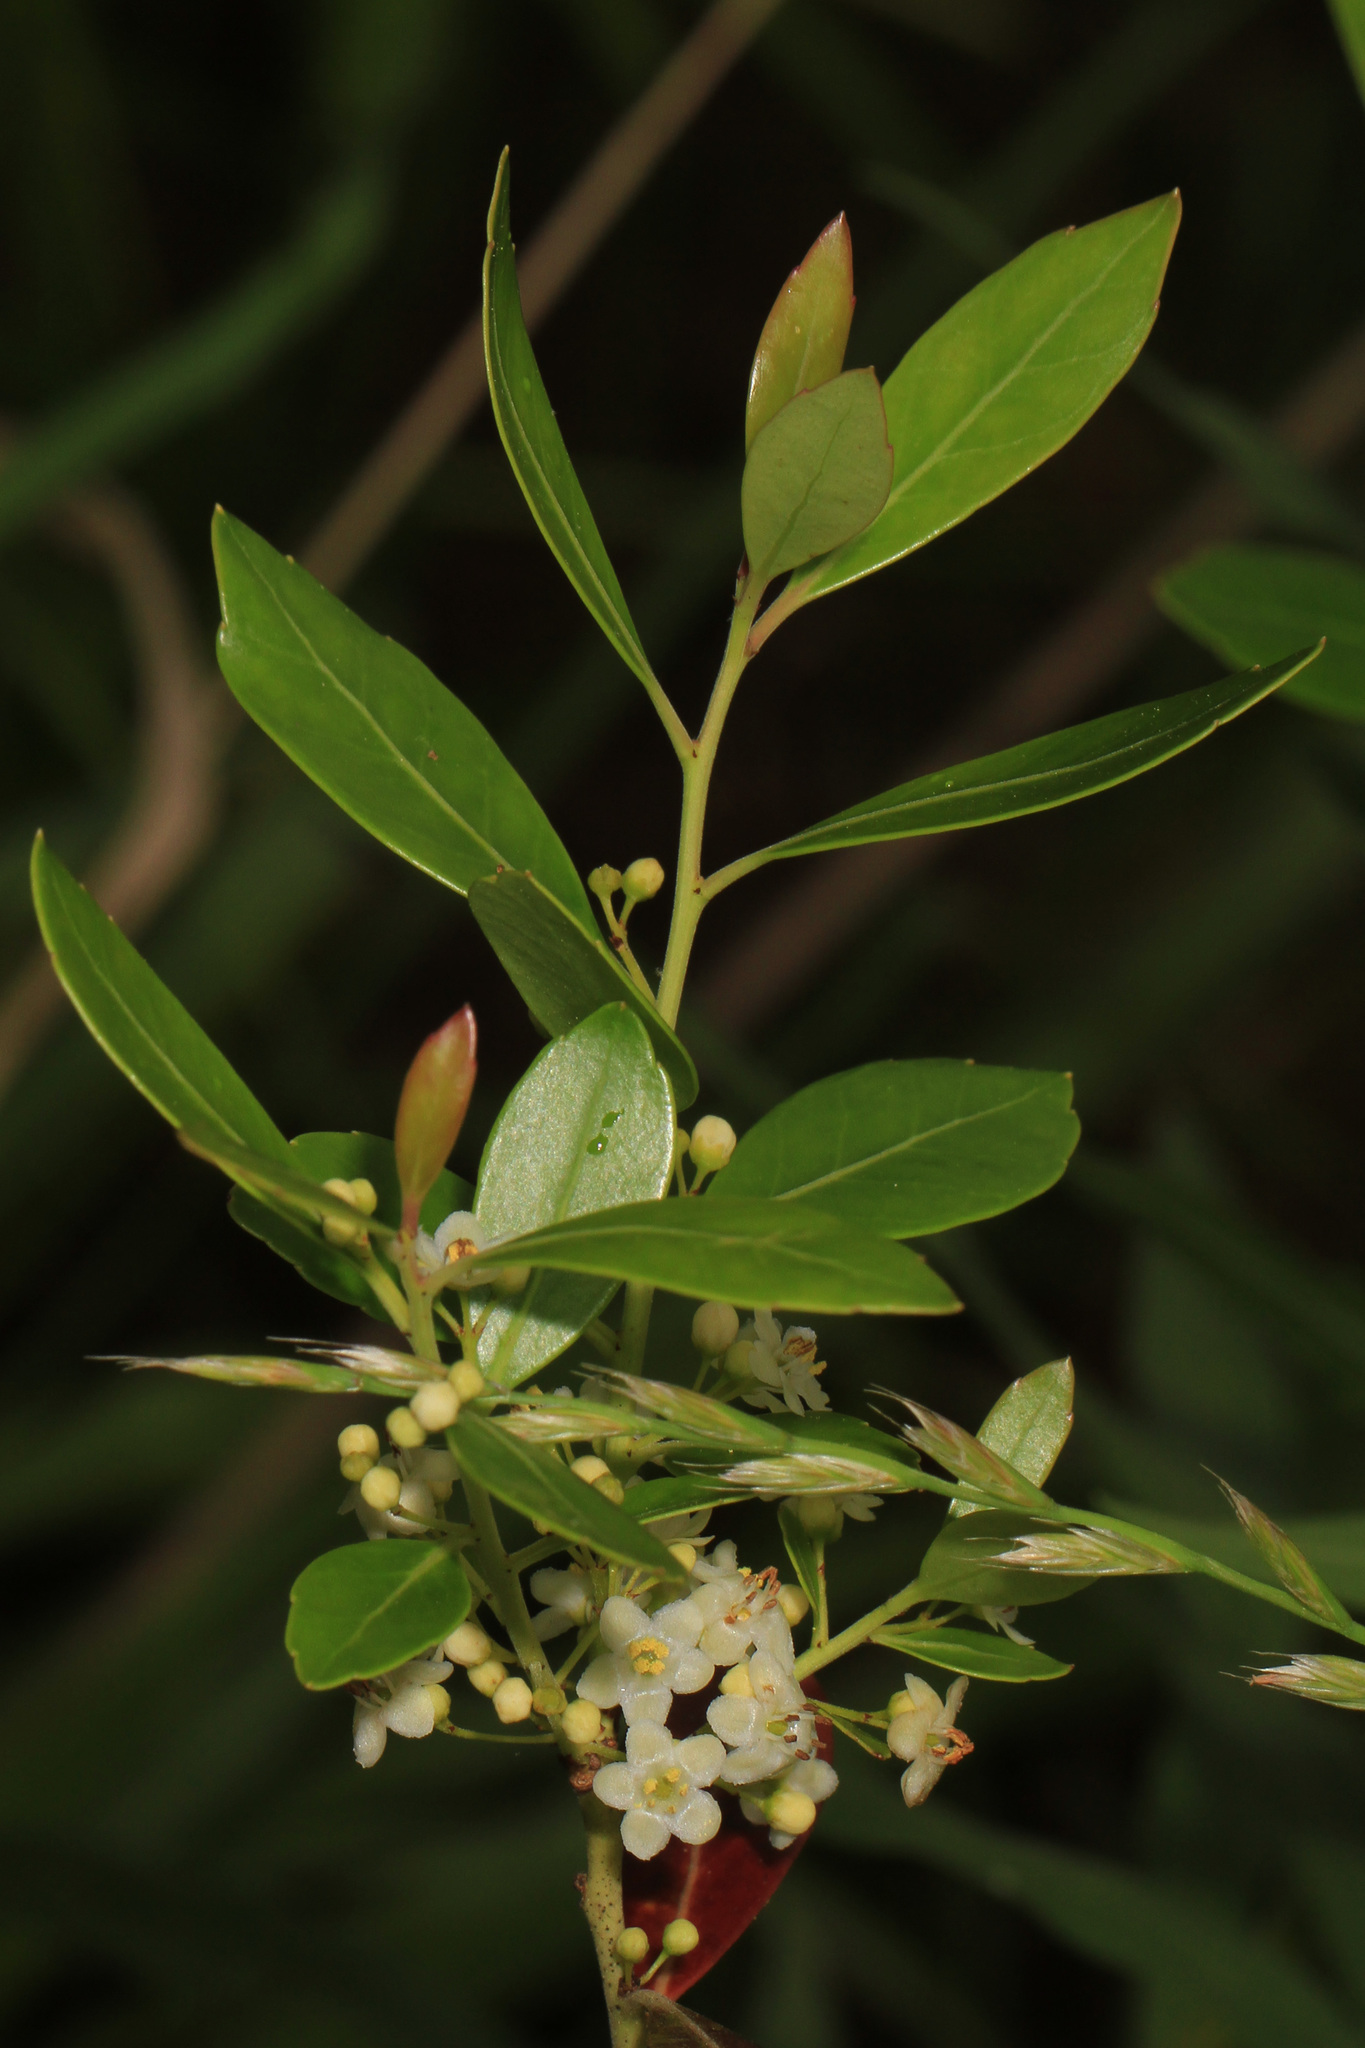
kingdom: Plantae
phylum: Tracheophyta
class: Magnoliopsida
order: Aquifoliales
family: Aquifoliaceae
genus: Ilex
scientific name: Ilex glabra
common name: Bitter gallberry
